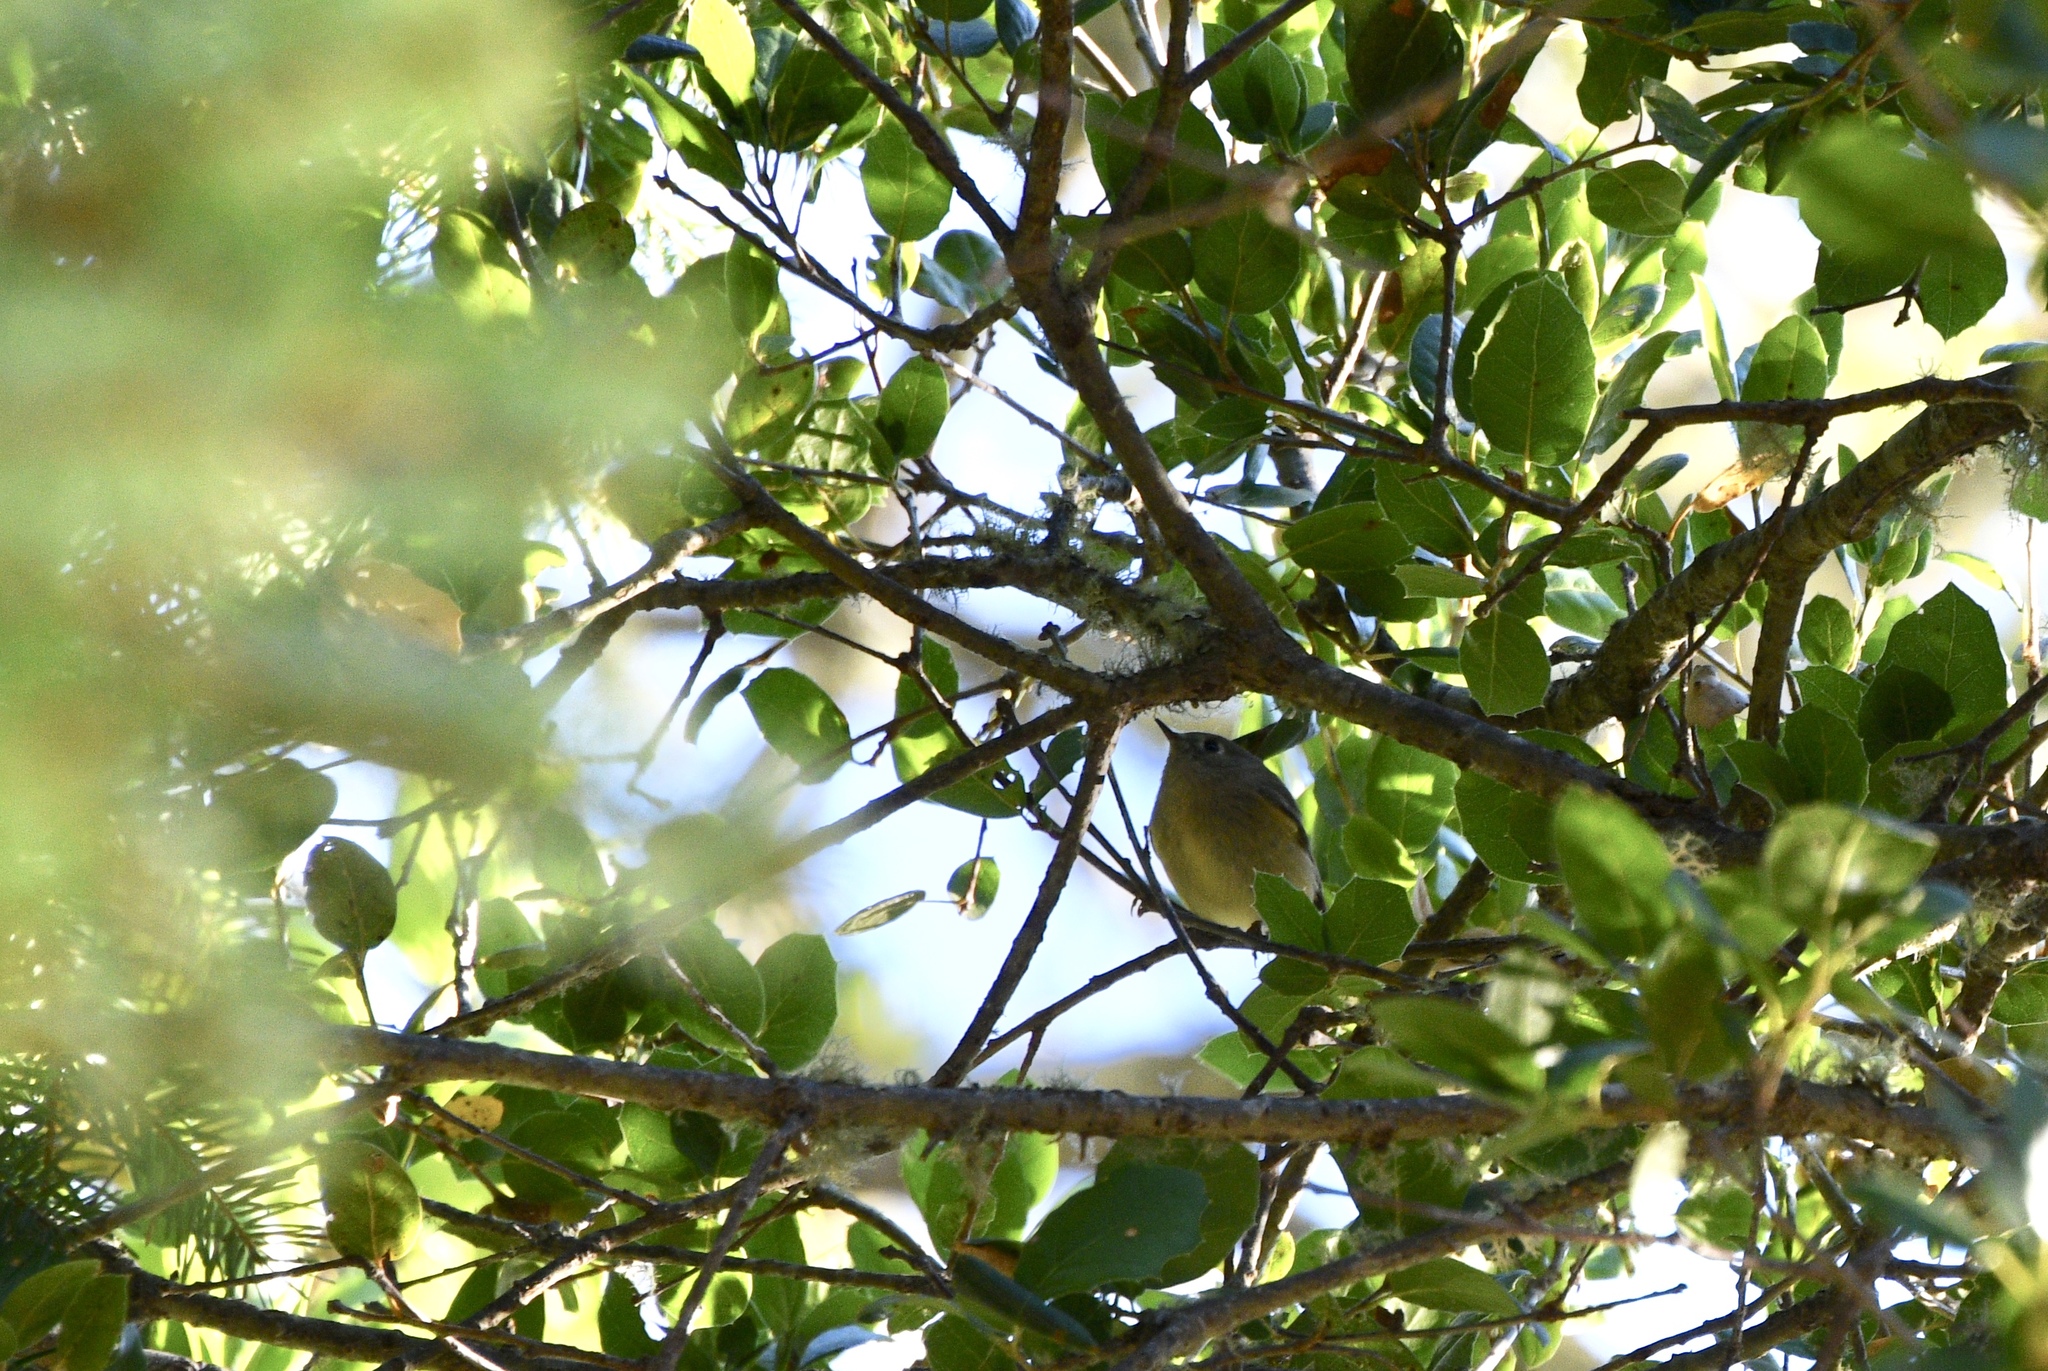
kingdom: Animalia
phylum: Chordata
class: Aves
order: Passeriformes
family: Regulidae
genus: Regulus
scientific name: Regulus calendula
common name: Ruby-crowned kinglet
